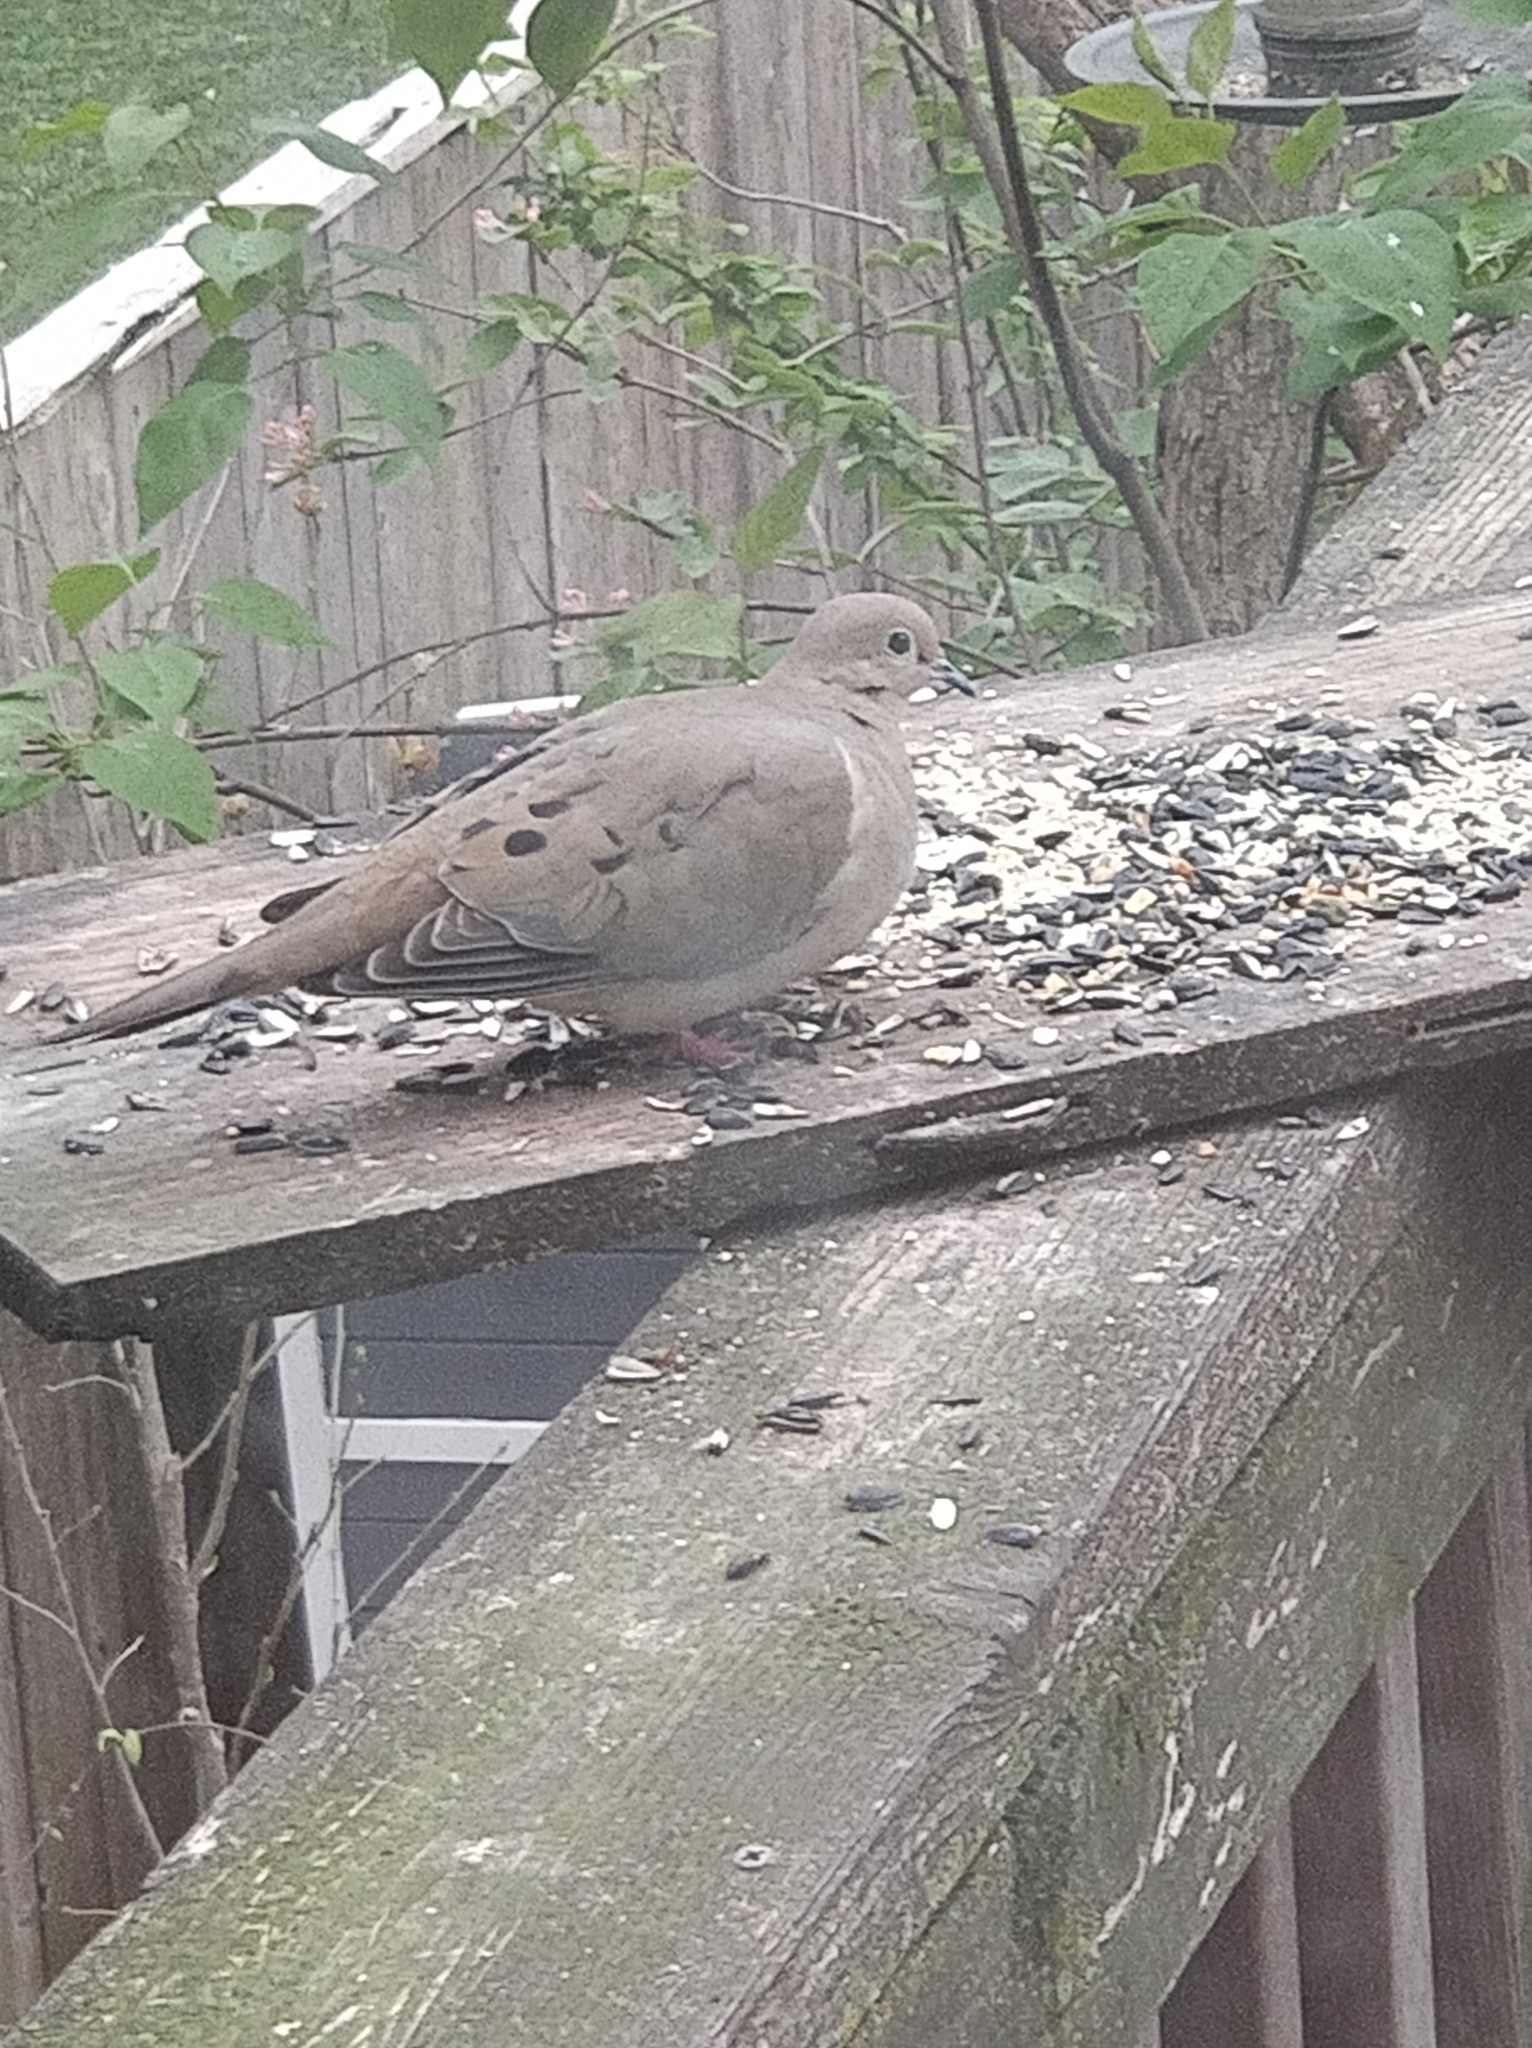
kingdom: Animalia
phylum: Chordata
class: Aves
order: Columbiformes
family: Columbidae
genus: Zenaida
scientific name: Zenaida macroura
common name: Mourning dove
